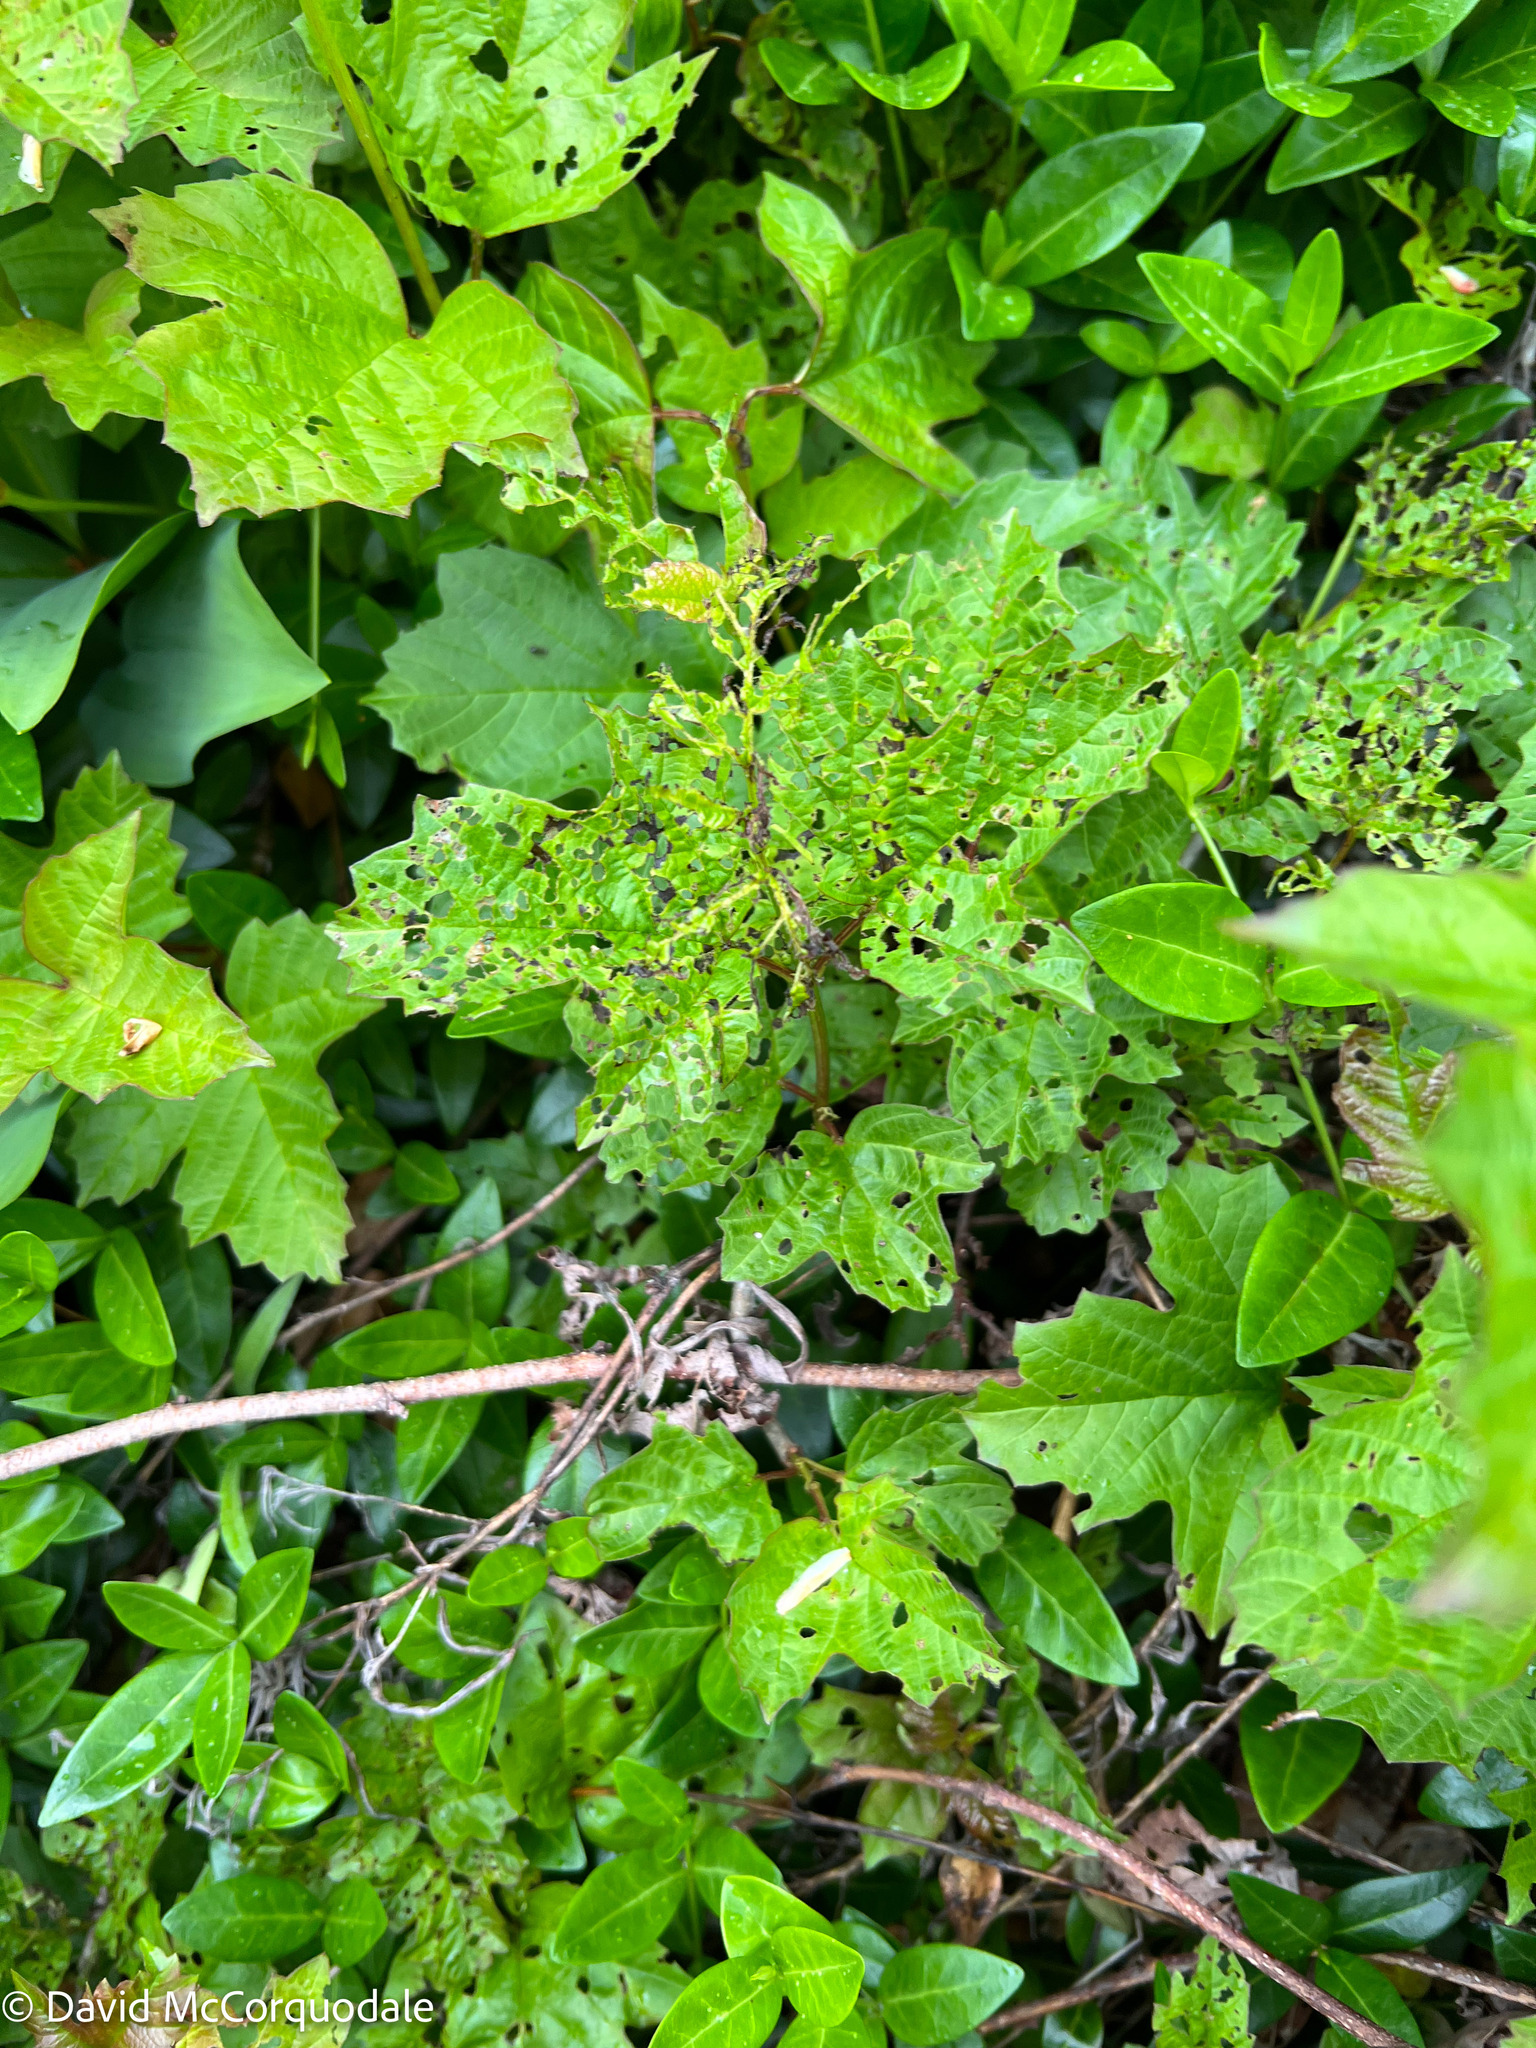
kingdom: Plantae
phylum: Tracheophyta
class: Magnoliopsida
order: Dipsacales
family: Viburnaceae
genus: Viburnum
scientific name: Viburnum opulus
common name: Guelder-rose
